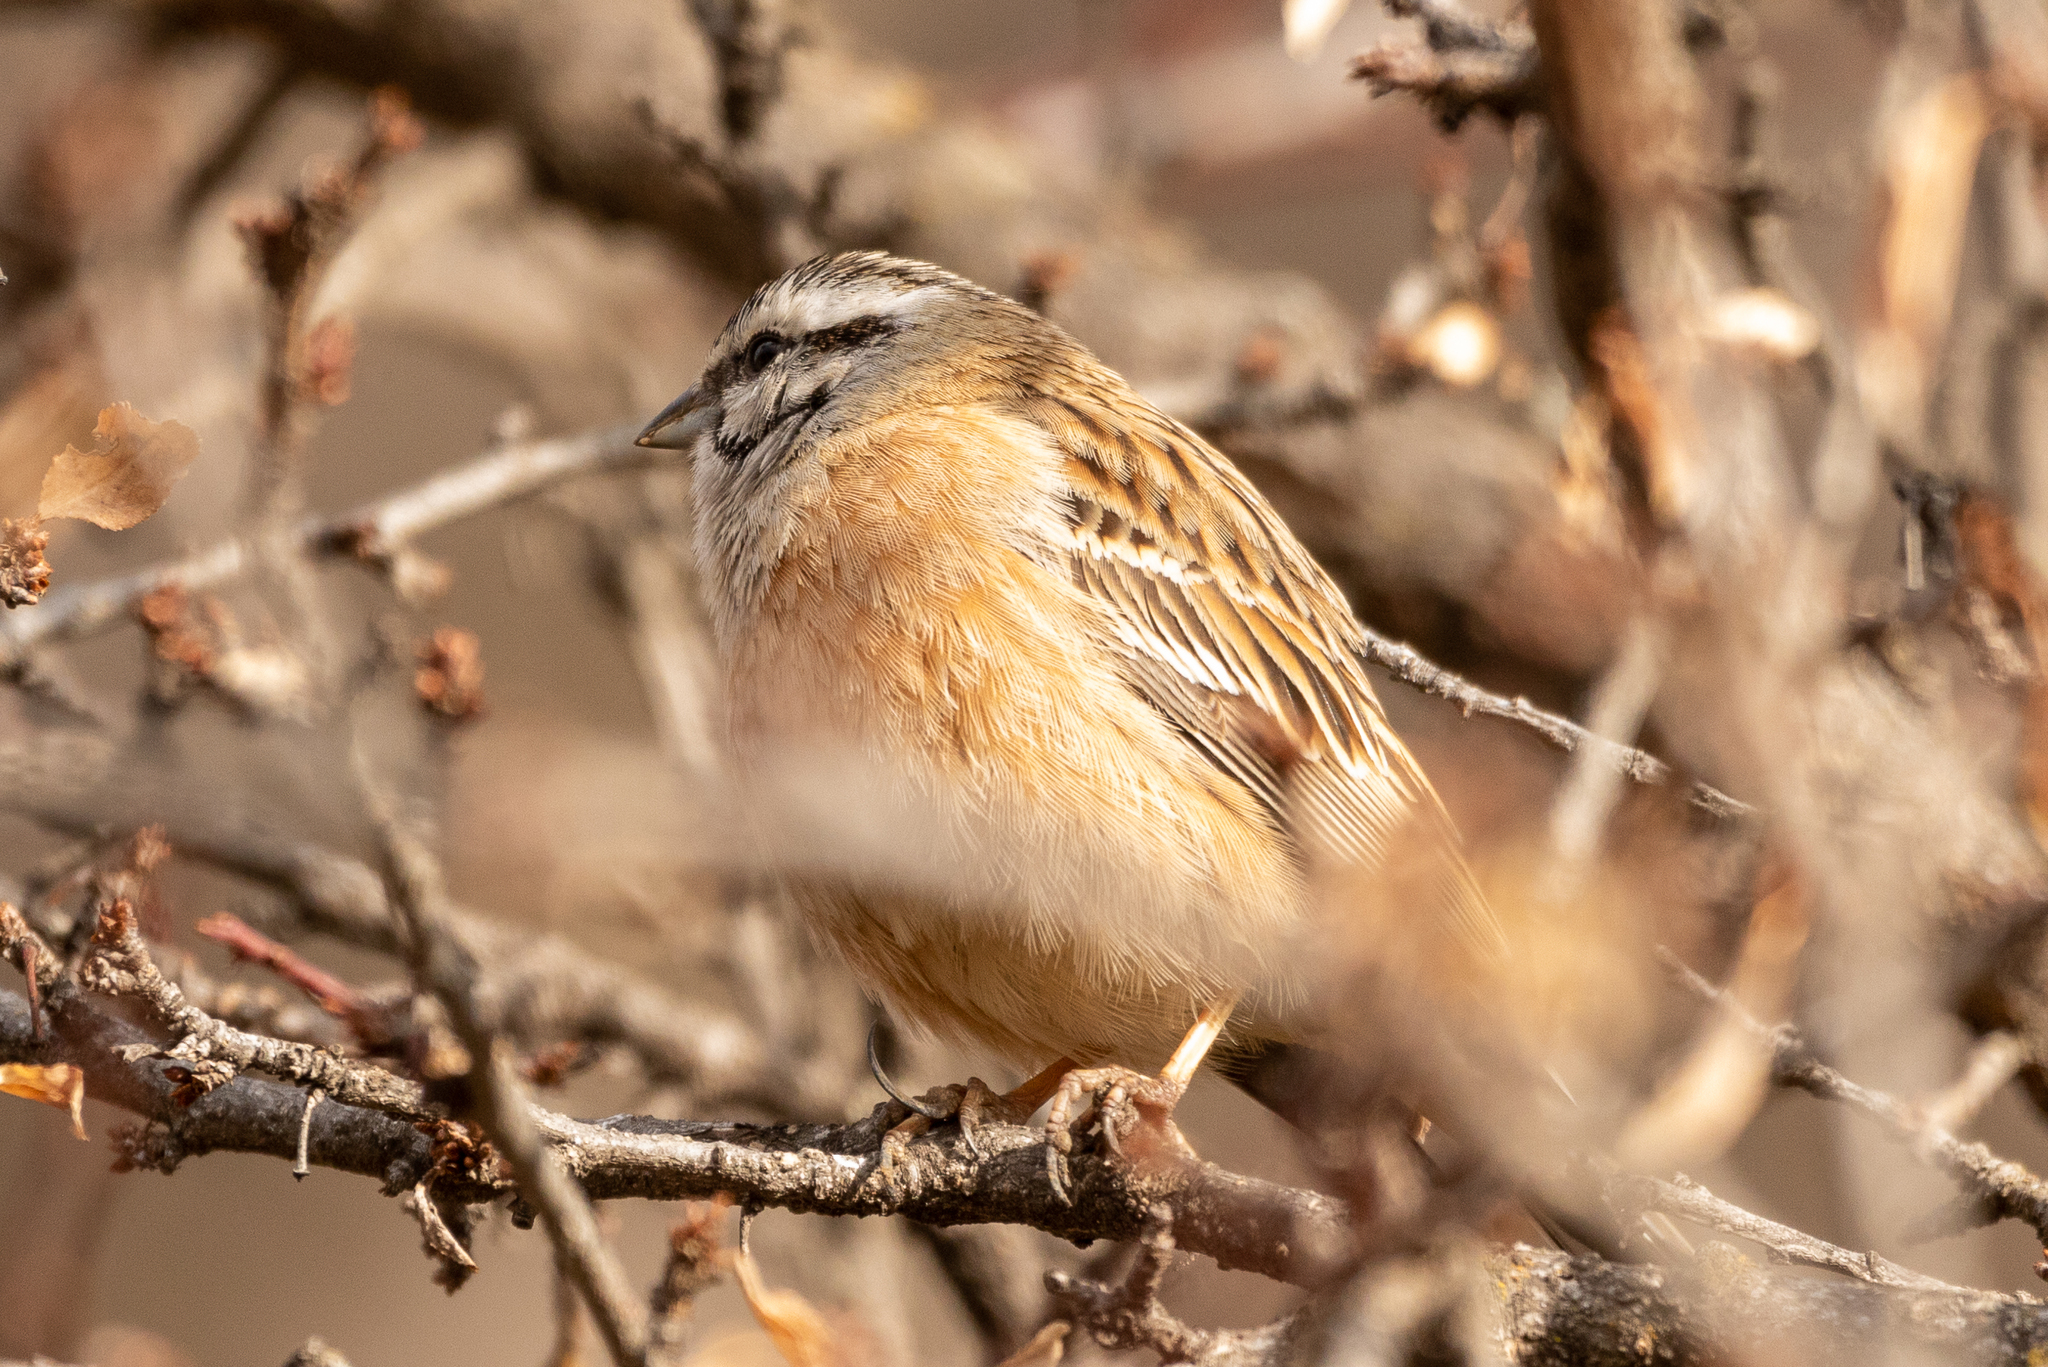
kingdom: Animalia
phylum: Chordata
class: Aves
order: Passeriformes
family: Emberizidae
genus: Emberiza
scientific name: Emberiza cia
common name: Rock bunting
